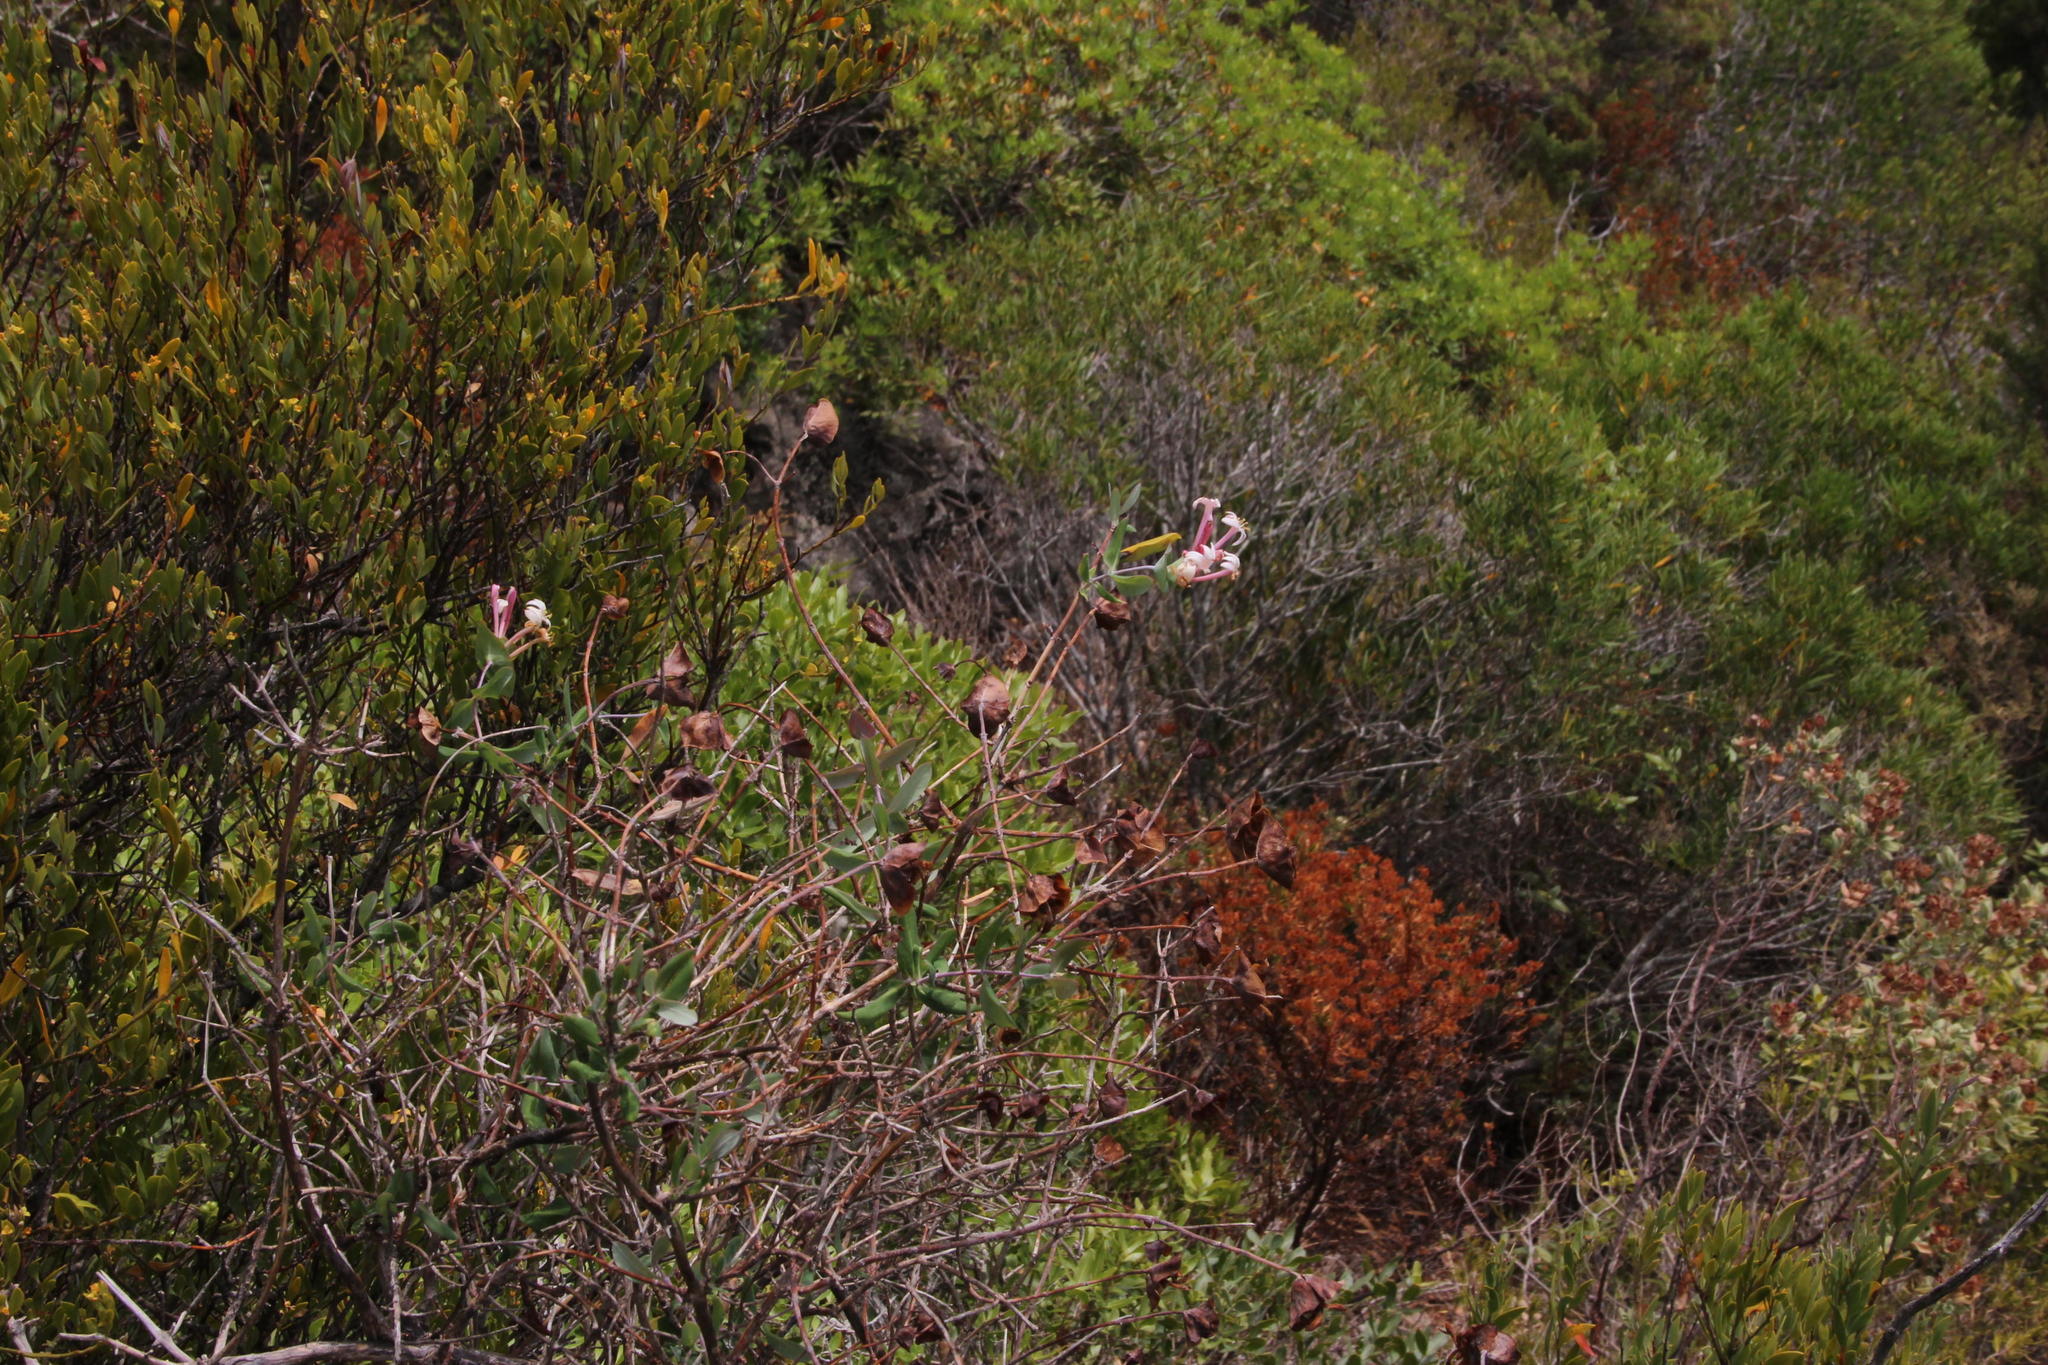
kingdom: Plantae
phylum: Tracheophyta
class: Magnoliopsida
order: Dipsacales
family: Caprifoliaceae
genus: Lonicera
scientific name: Lonicera implexa
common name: Minorca honeysuckle
